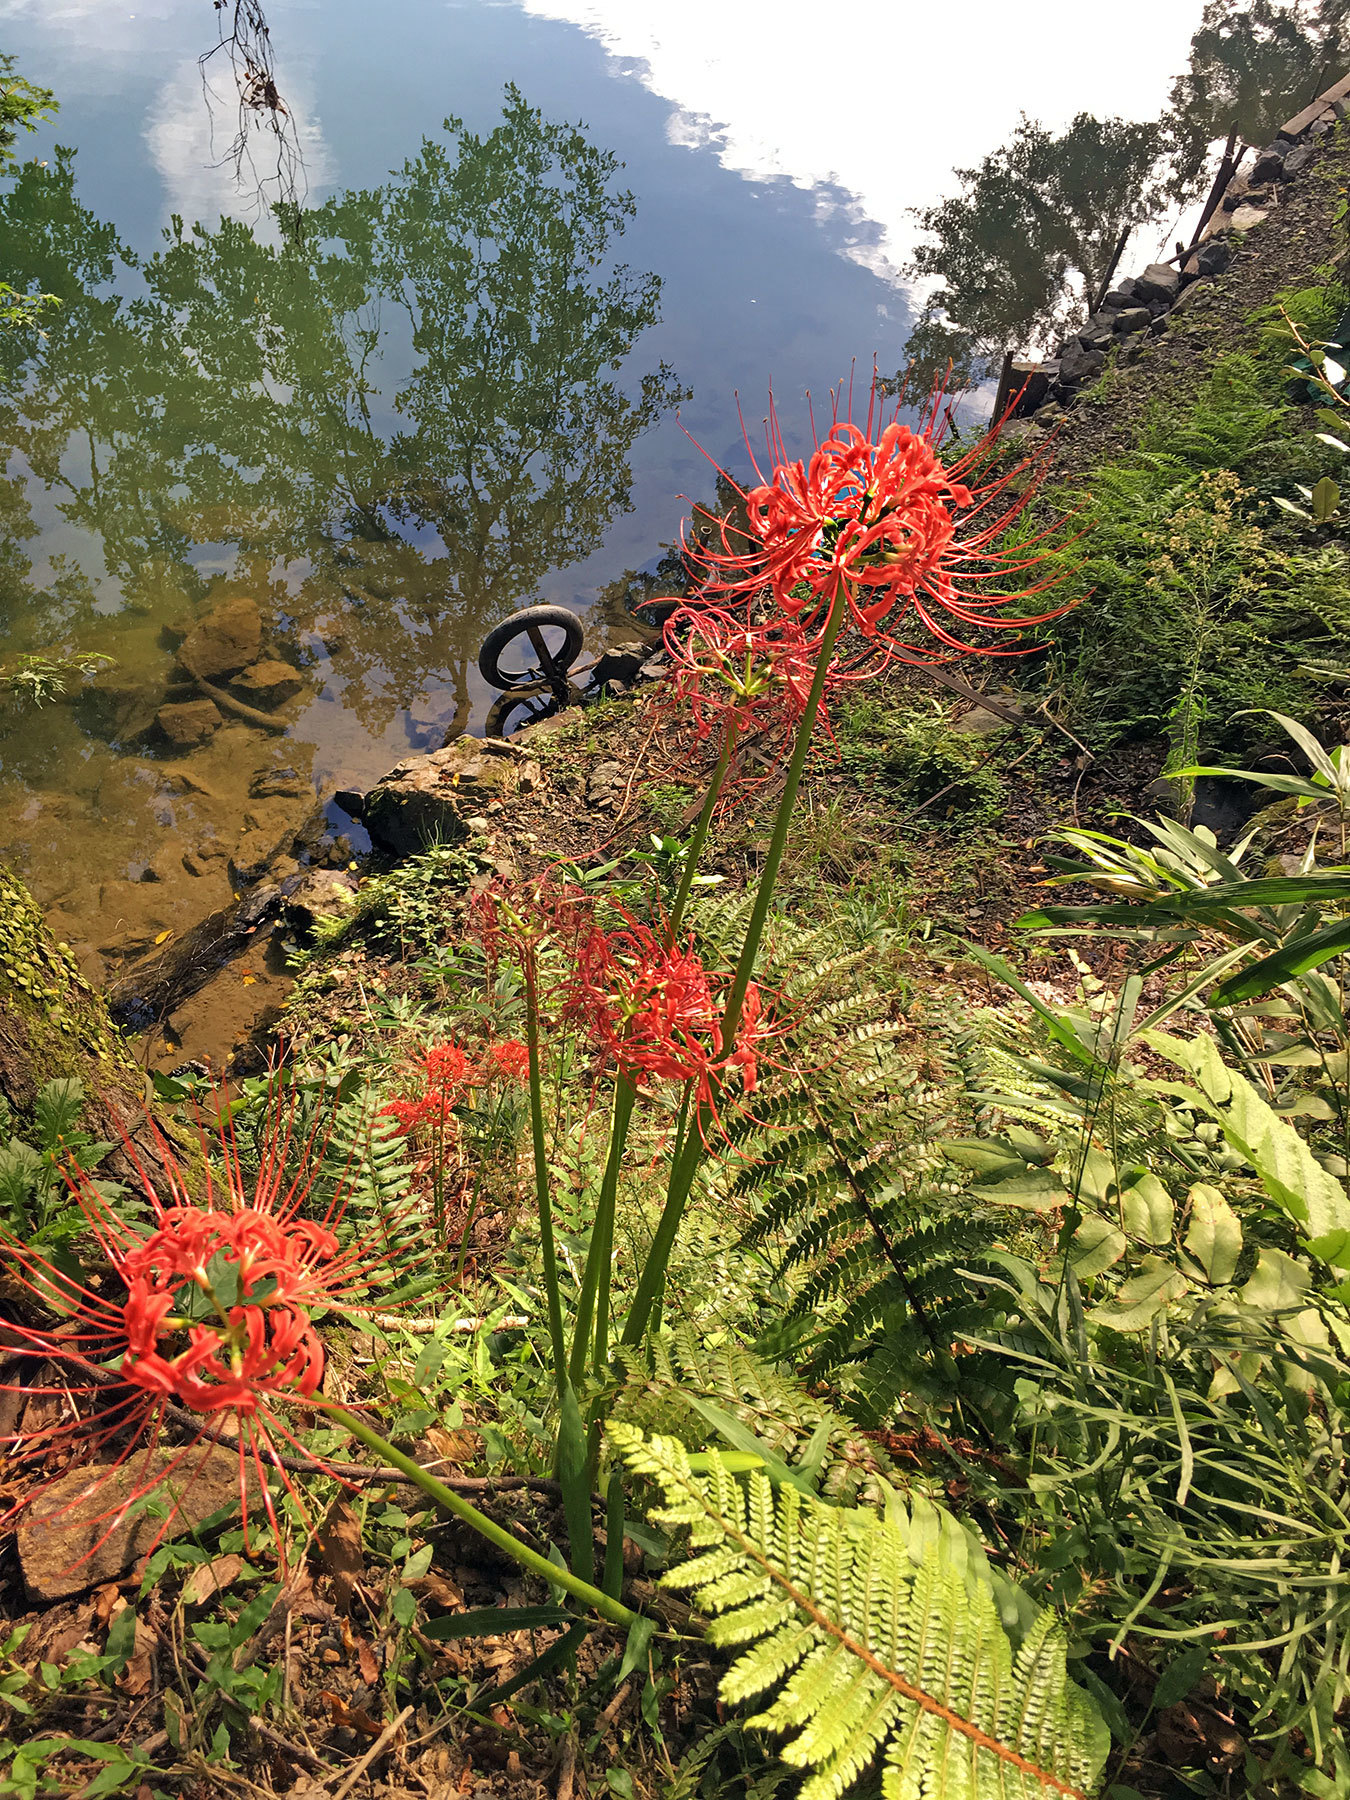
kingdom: Plantae
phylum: Tracheophyta
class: Liliopsida
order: Asparagales
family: Amaryllidaceae
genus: Lycoris
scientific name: Lycoris radiata
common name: Red spider lily
